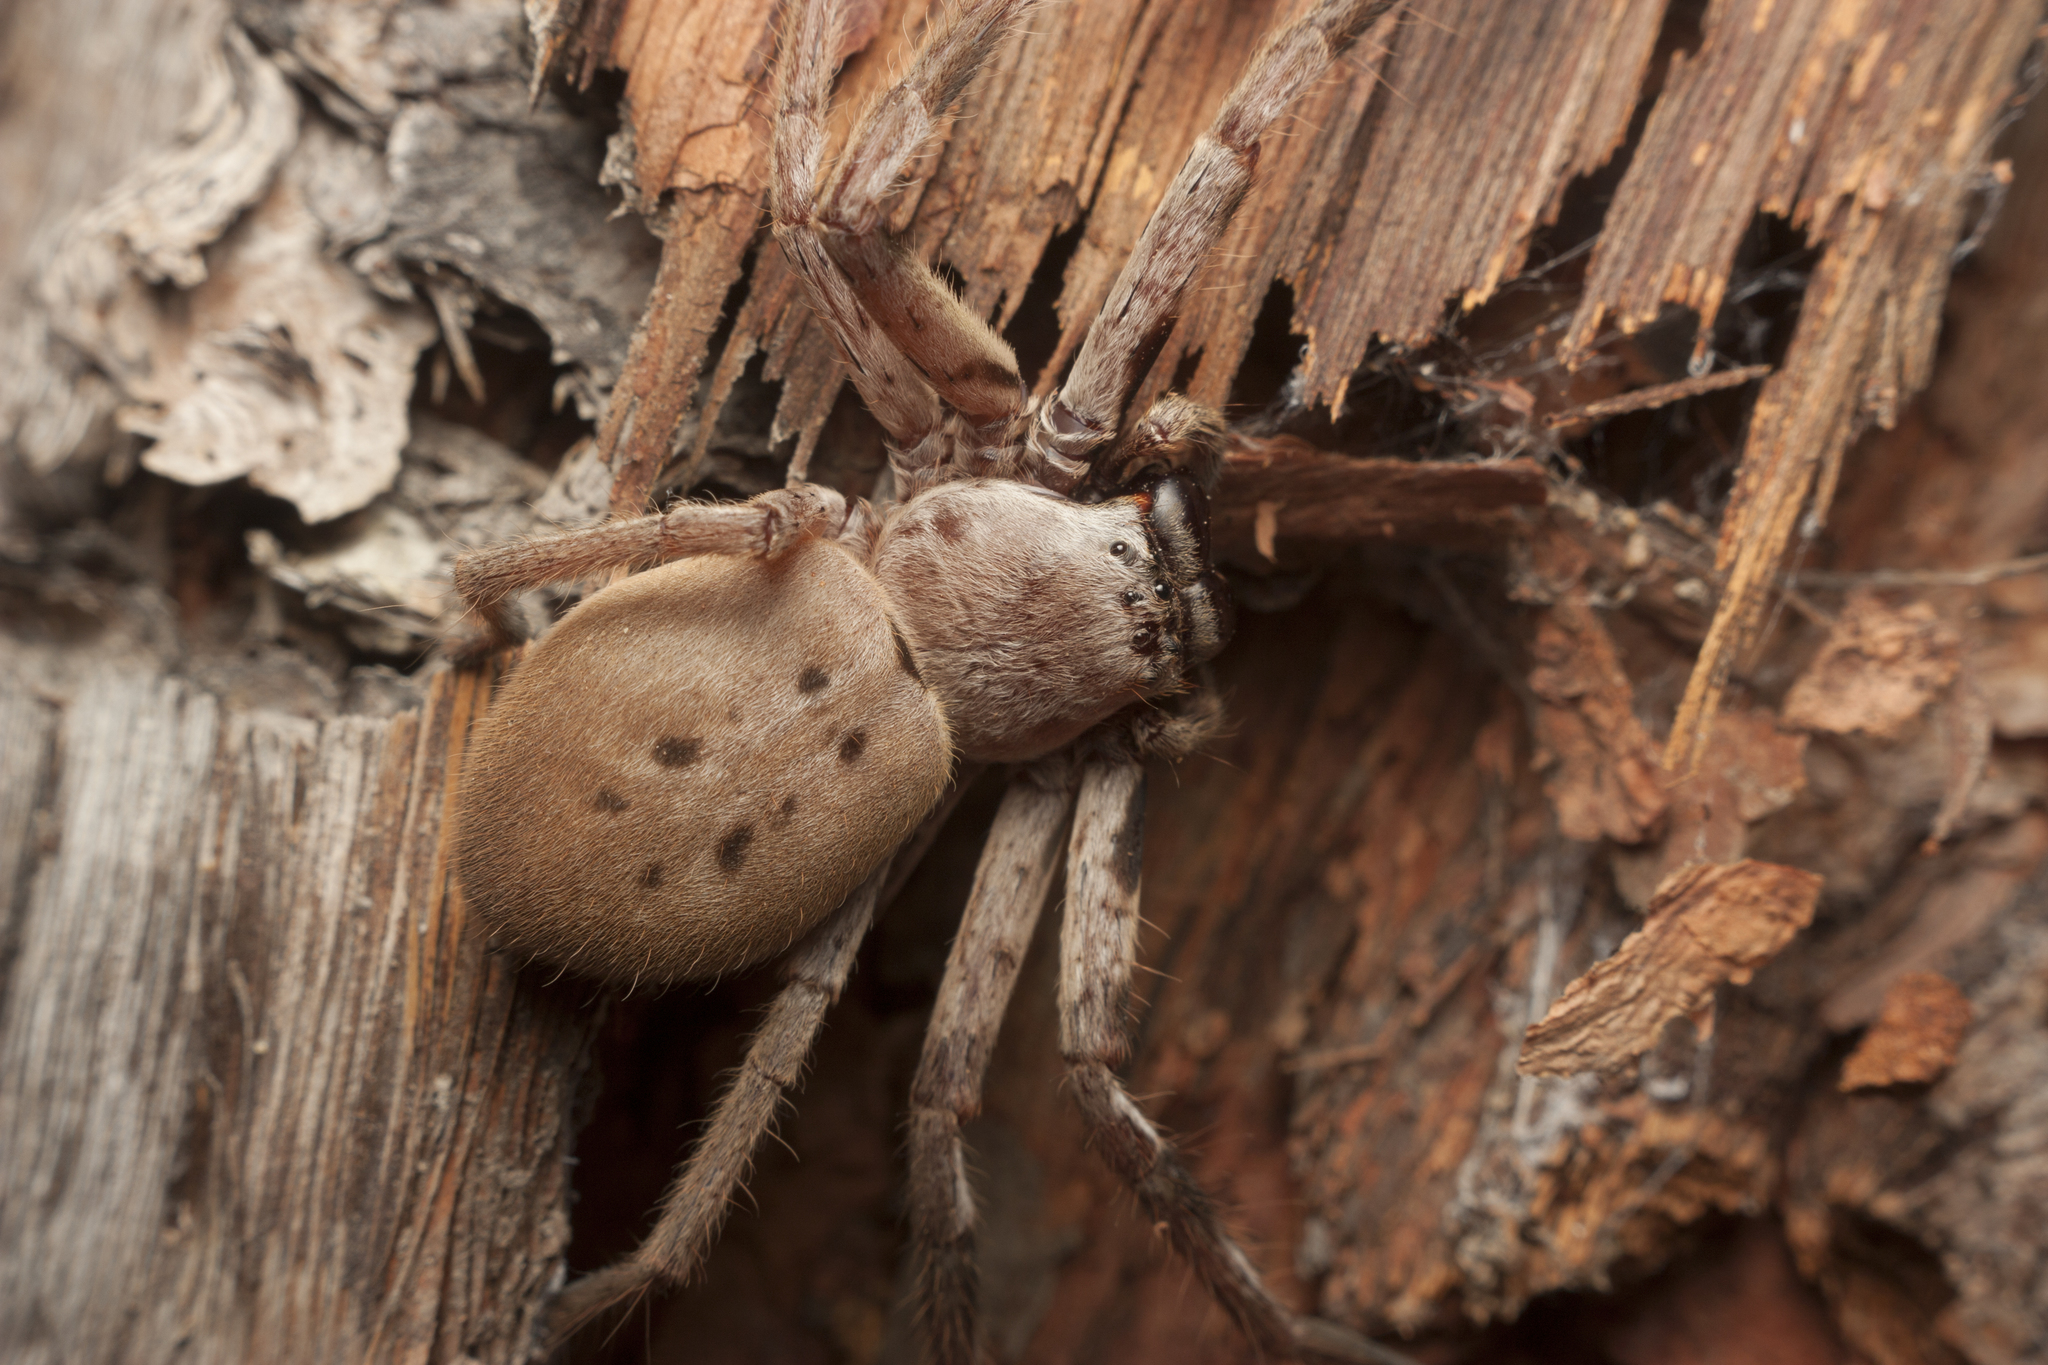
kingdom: Animalia
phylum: Arthropoda
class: Arachnida
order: Araneae
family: Sparassidae
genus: Isopeda
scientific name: Isopeda vasta
